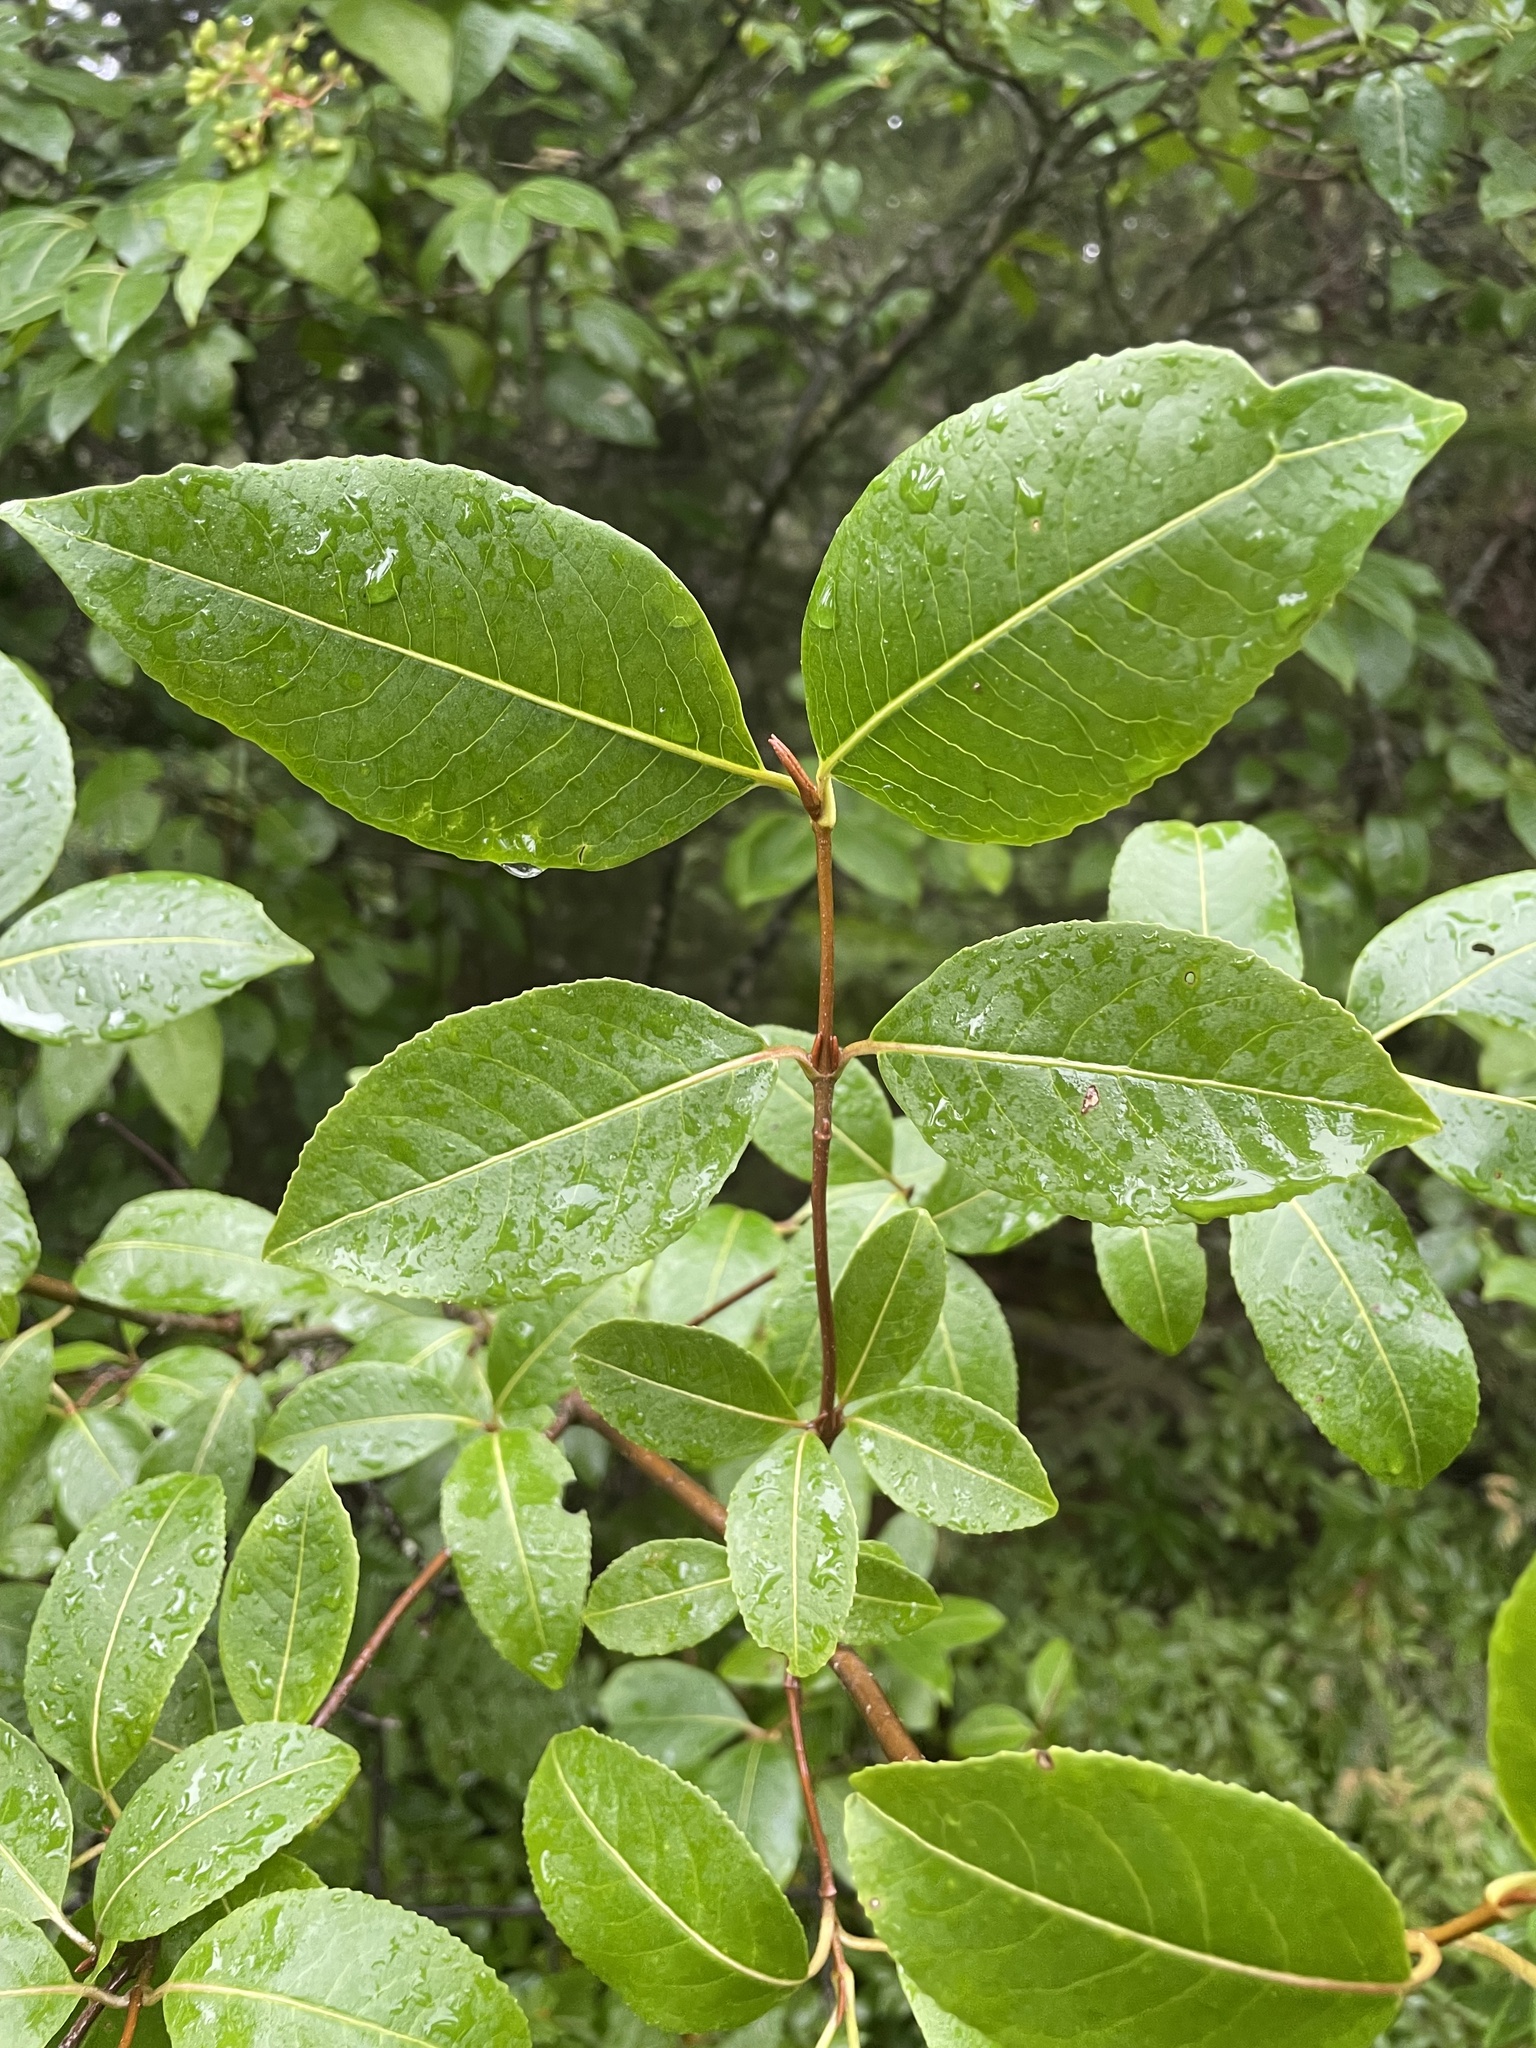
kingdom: Plantae
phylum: Tracheophyta
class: Magnoliopsida
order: Dipsacales
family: Viburnaceae
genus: Viburnum
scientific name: Viburnum cassinoides
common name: Swamp haw
